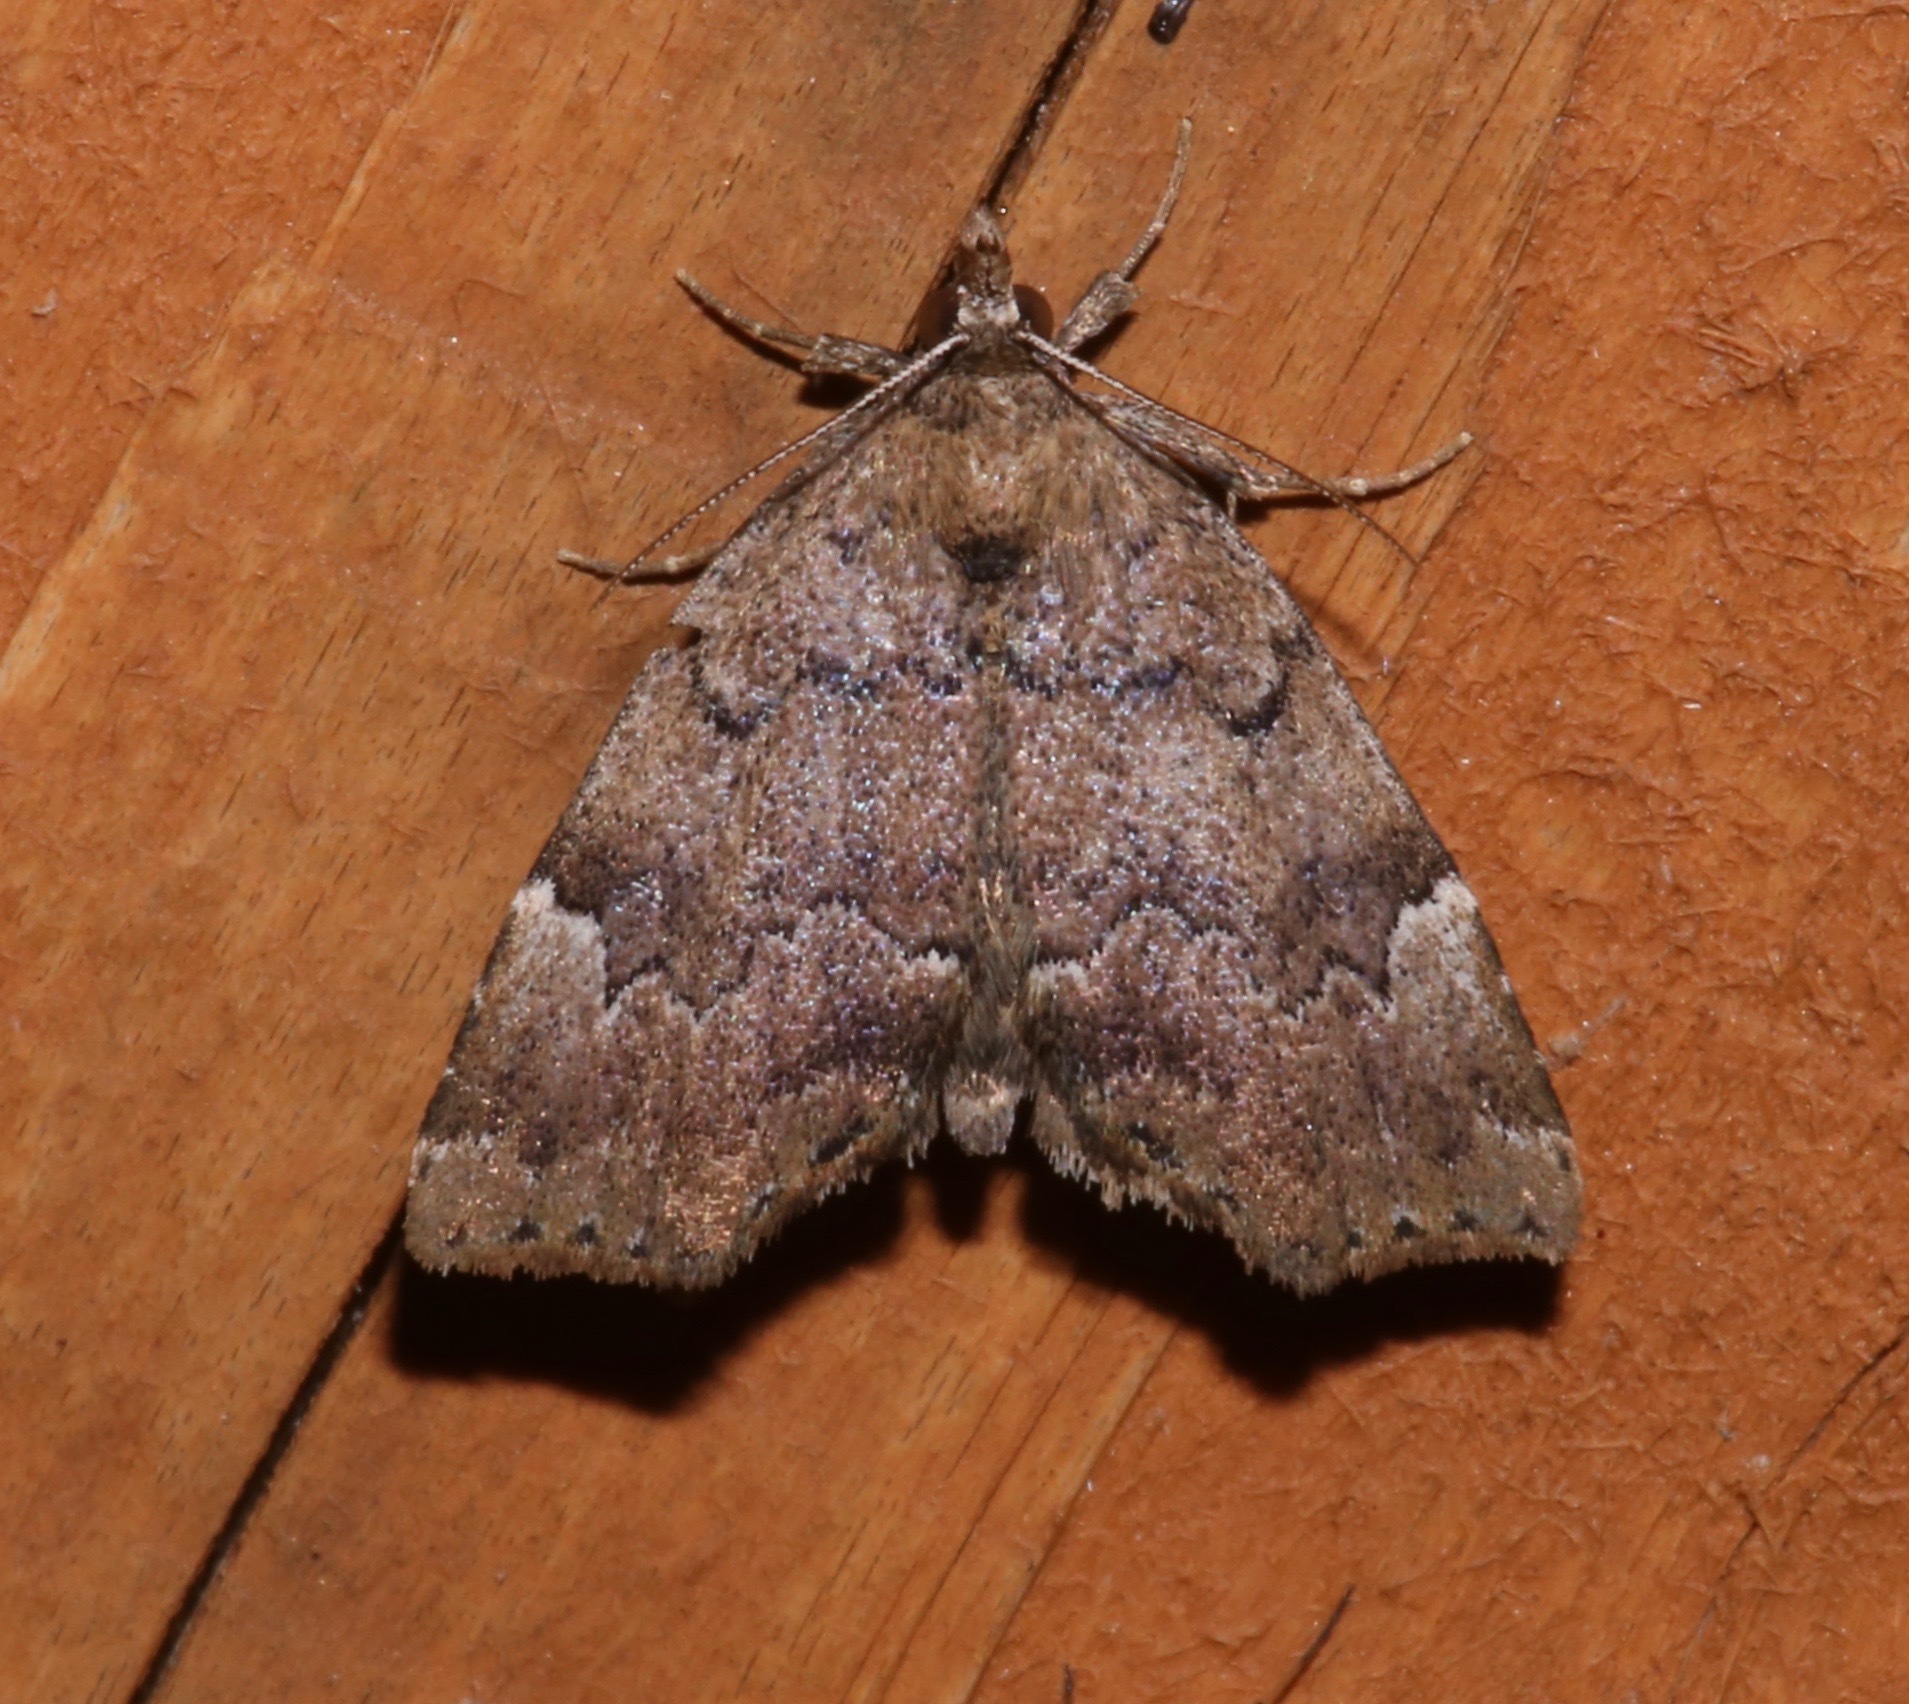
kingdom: Animalia
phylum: Arthropoda
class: Insecta
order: Lepidoptera
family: Erebidae
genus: Cutina
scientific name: Cutina aluticolor
